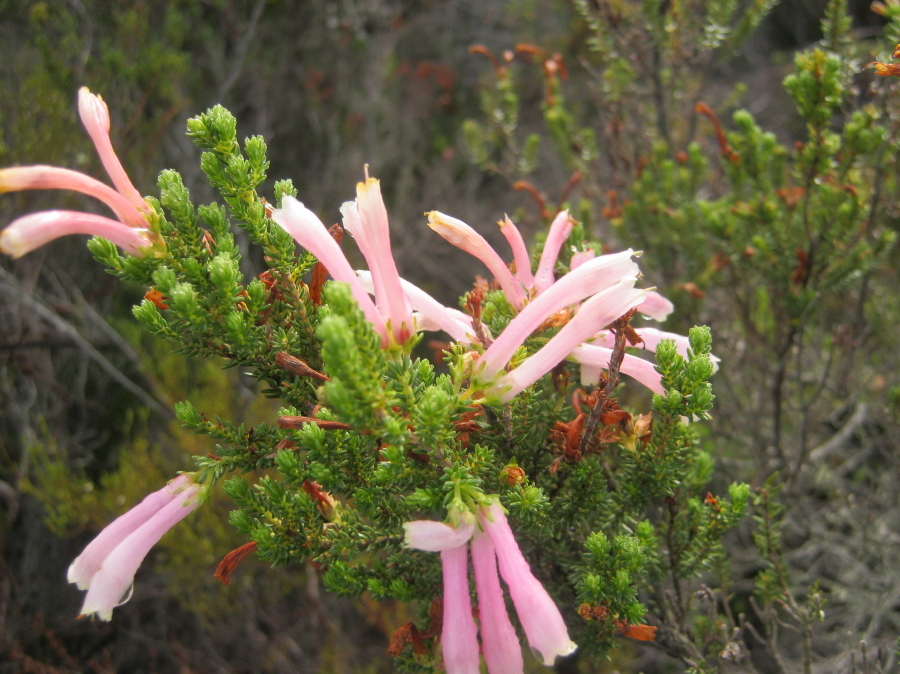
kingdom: Plantae
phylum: Tracheophyta
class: Magnoliopsida
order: Ericales
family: Ericaceae
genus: Erica
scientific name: Erica versicolor
